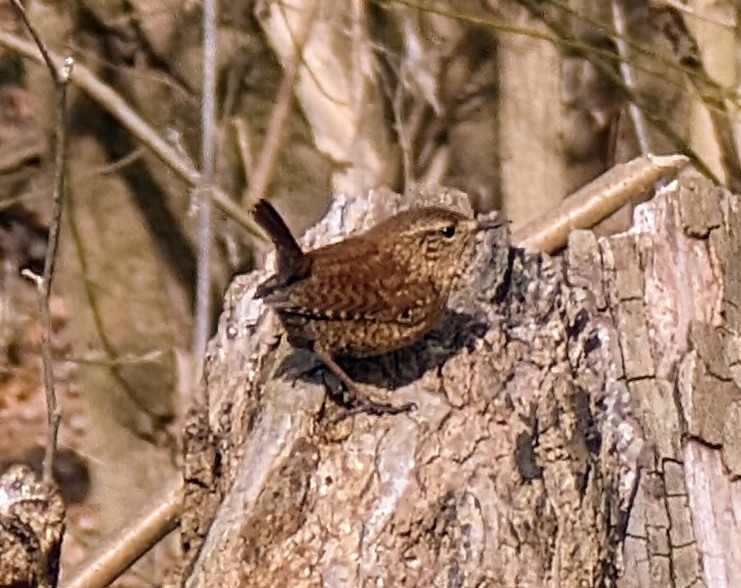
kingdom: Animalia
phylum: Chordata
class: Aves
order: Passeriformes
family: Troglodytidae
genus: Troglodytes
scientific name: Troglodytes hiemalis
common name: Winter wren
